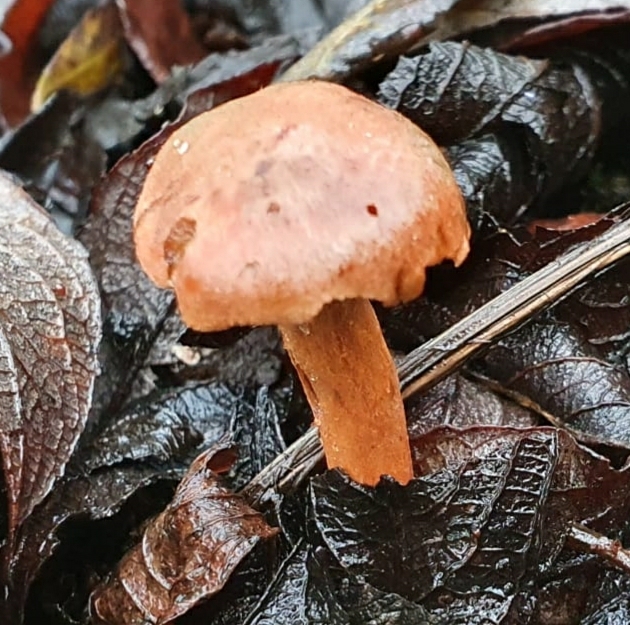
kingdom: Fungi
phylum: Basidiomycota
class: Agaricomycetes
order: Agaricales
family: Cortinariaceae
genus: Cortinarius
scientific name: Cortinarius uliginosus
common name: Marsh webcap
